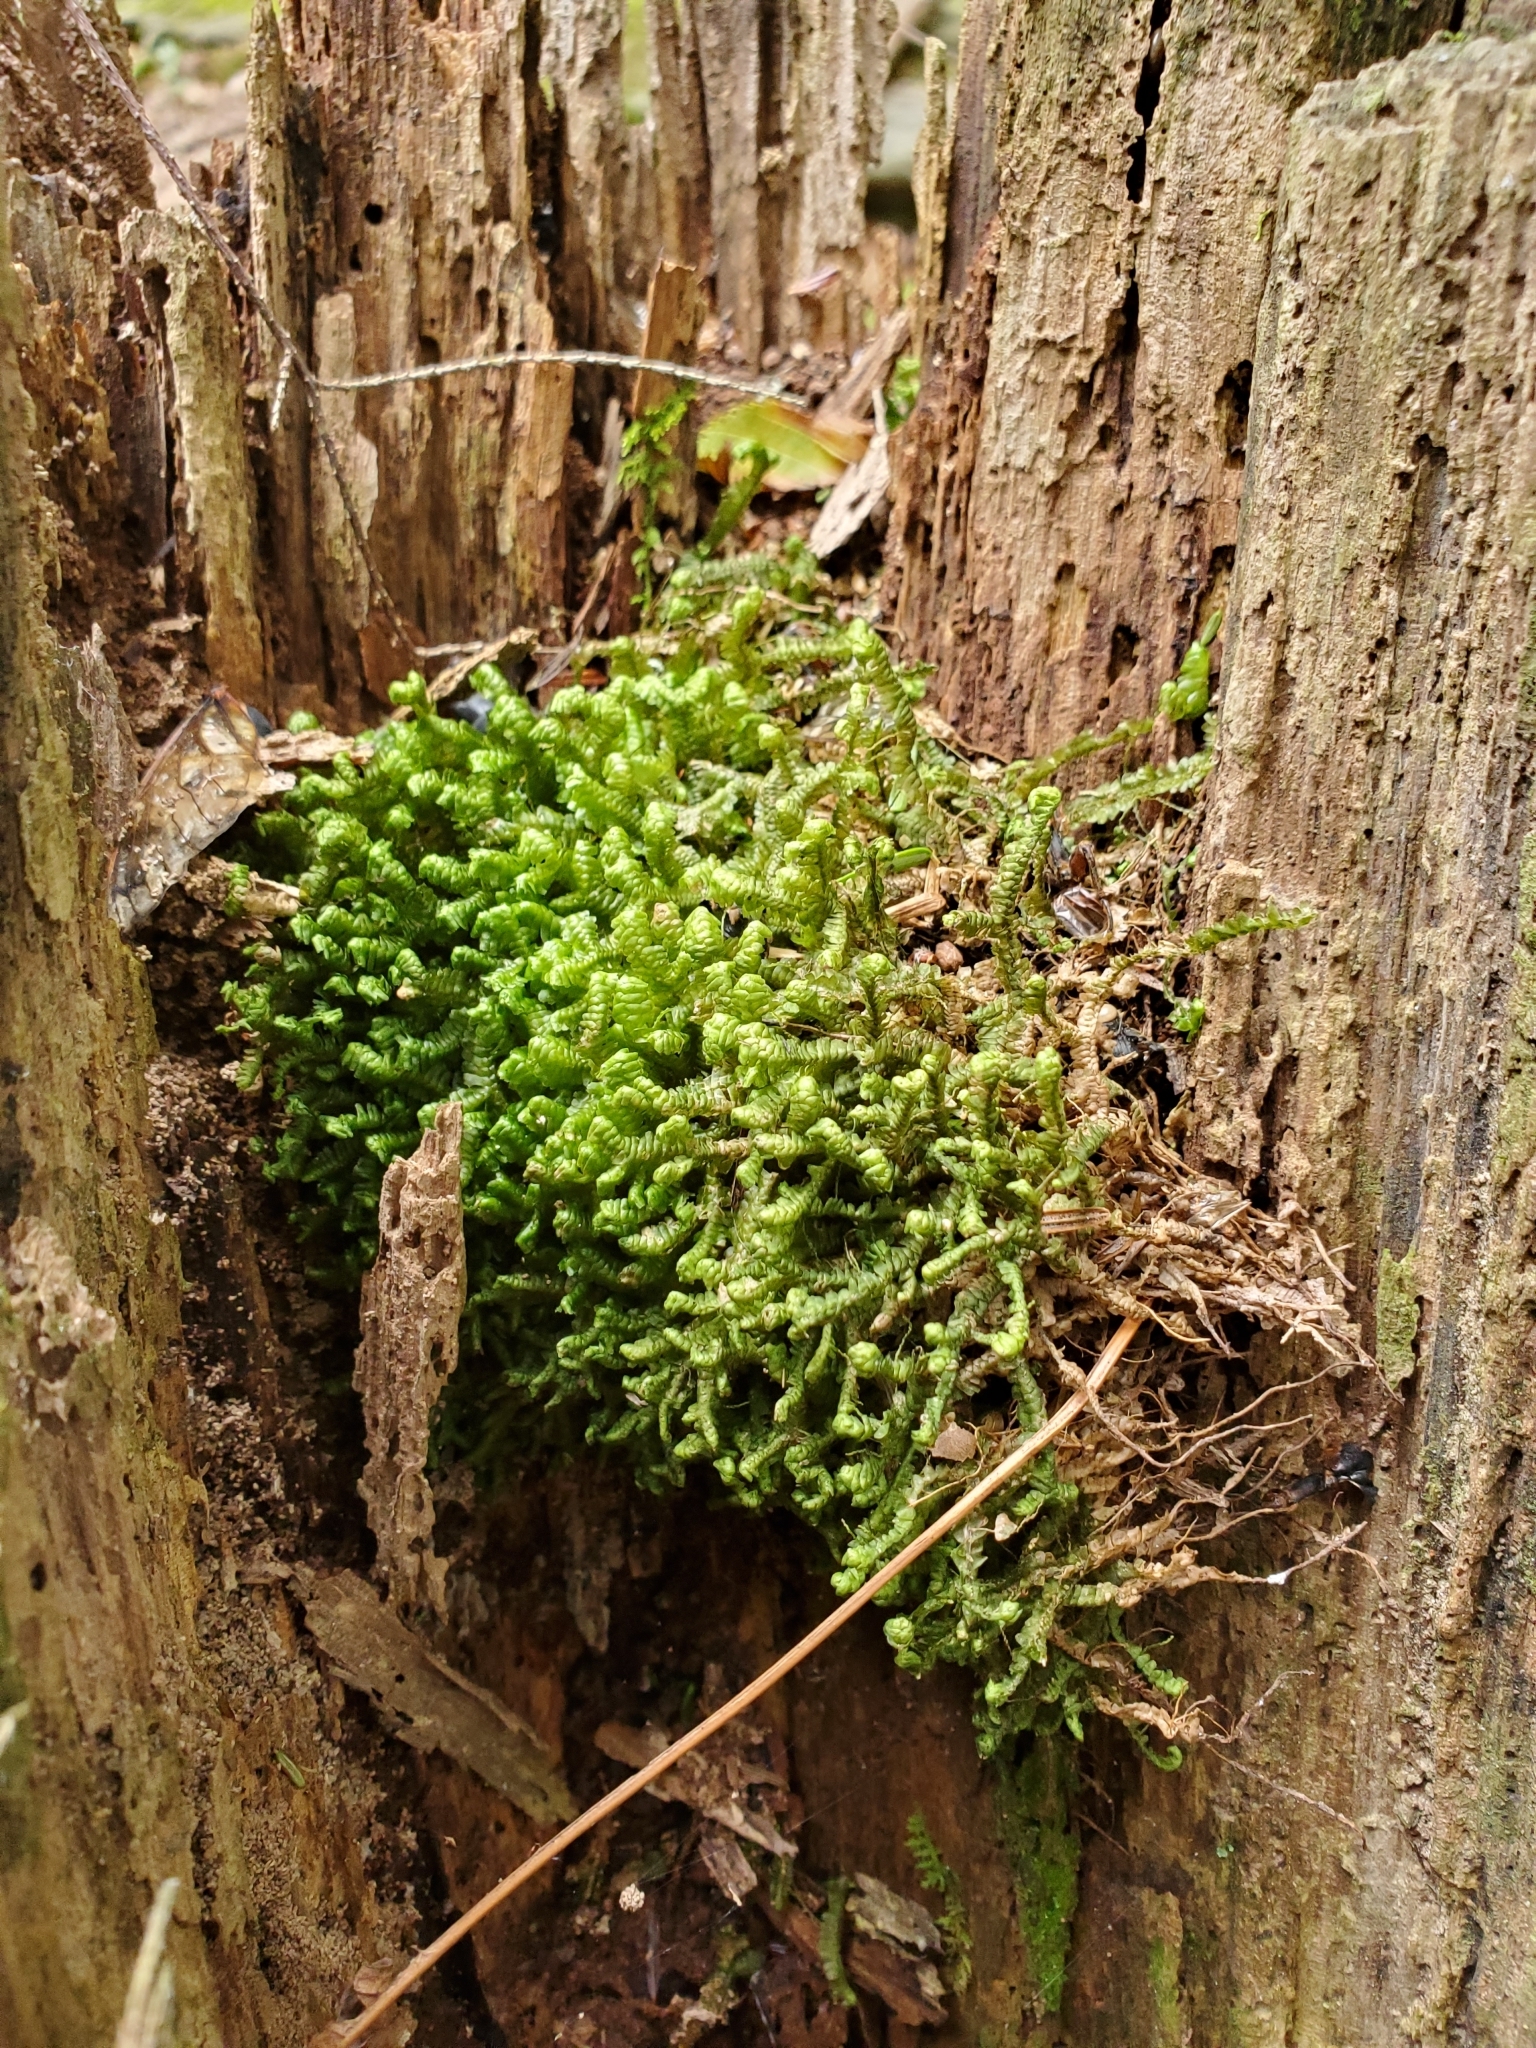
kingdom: Plantae
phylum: Marchantiophyta
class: Jungermanniopsida
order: Jungermanniales
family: Lepidoziaceae
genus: Bazzania
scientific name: Bazzania trilobata
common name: Three-lobed whipwort
